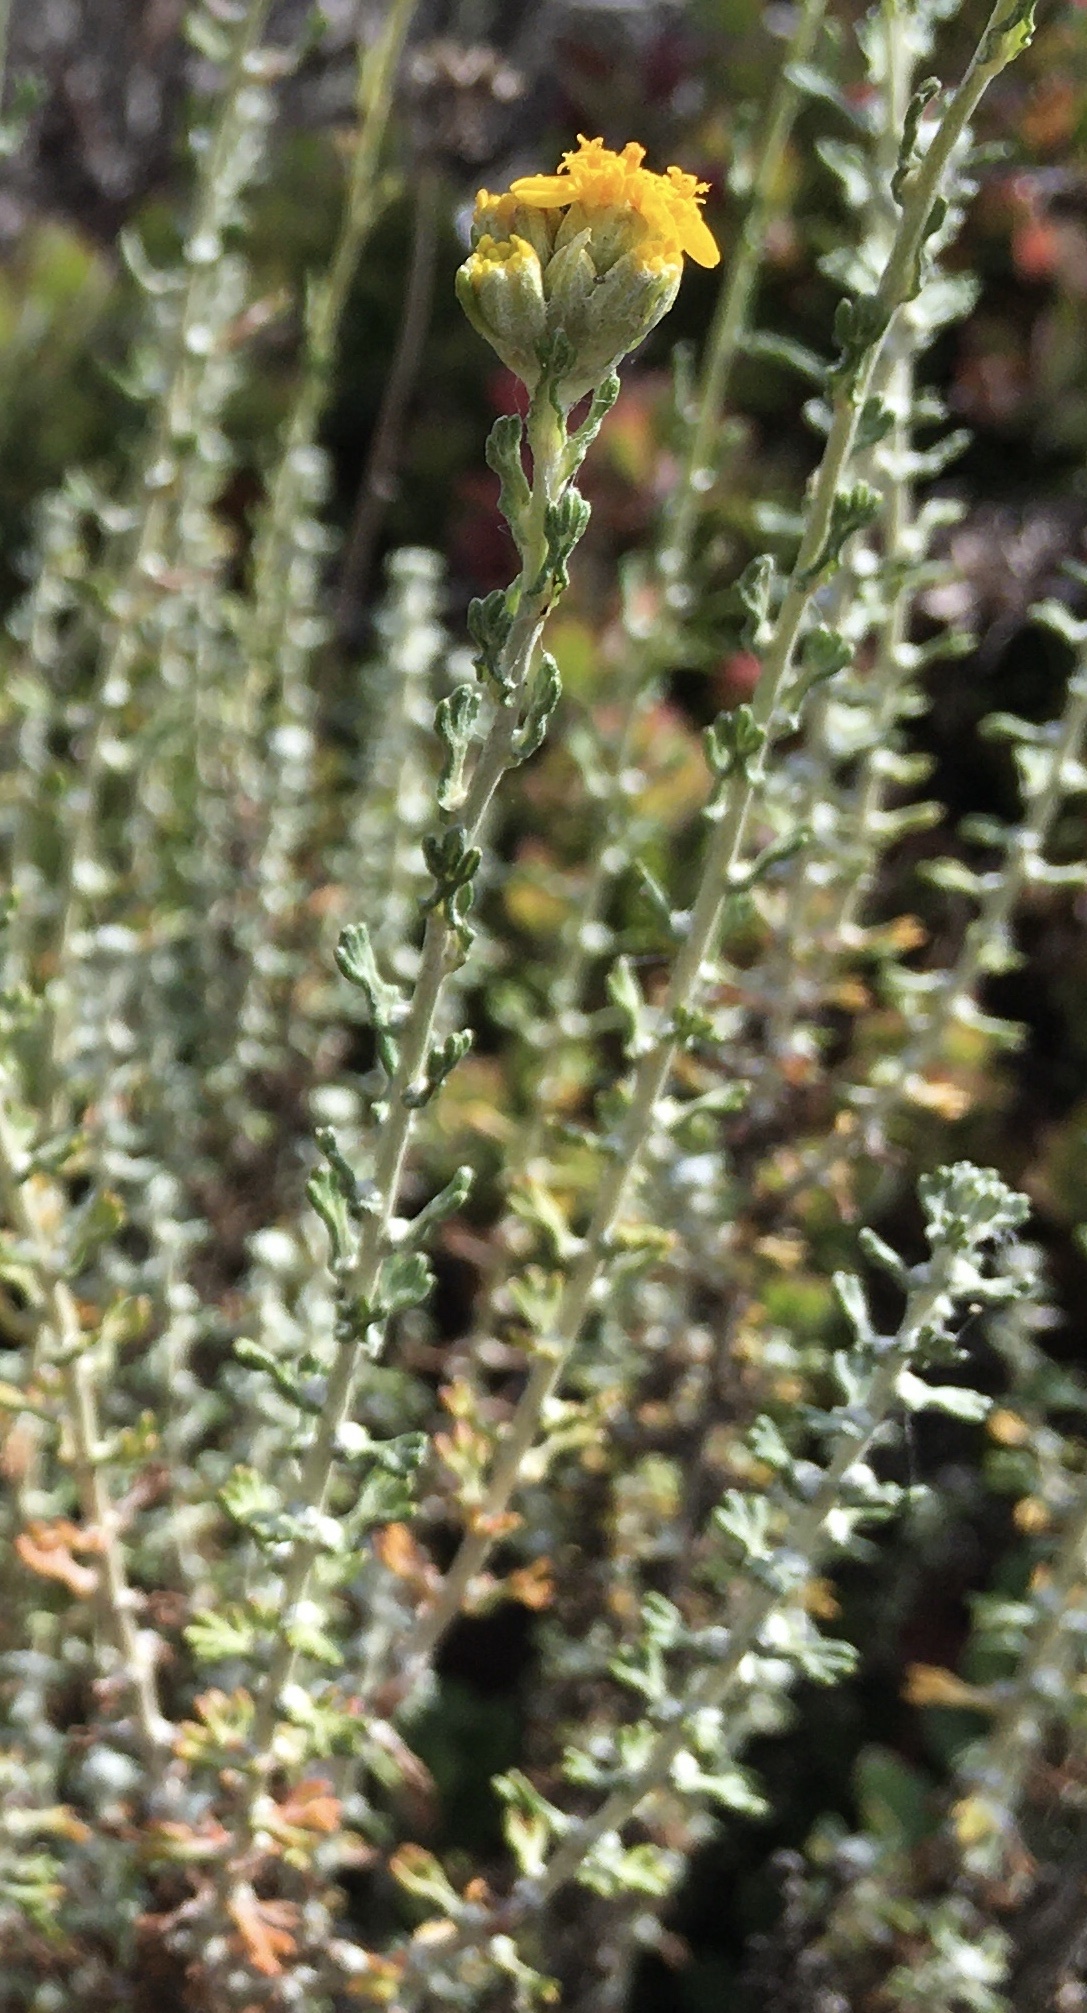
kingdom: Plantae
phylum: Tracheophyta
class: Magnoliopsida
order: Asterales
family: Asteraceae
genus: Eriophyllum
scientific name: Eriophyllum confertiflorum
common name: Golden-yarrow
